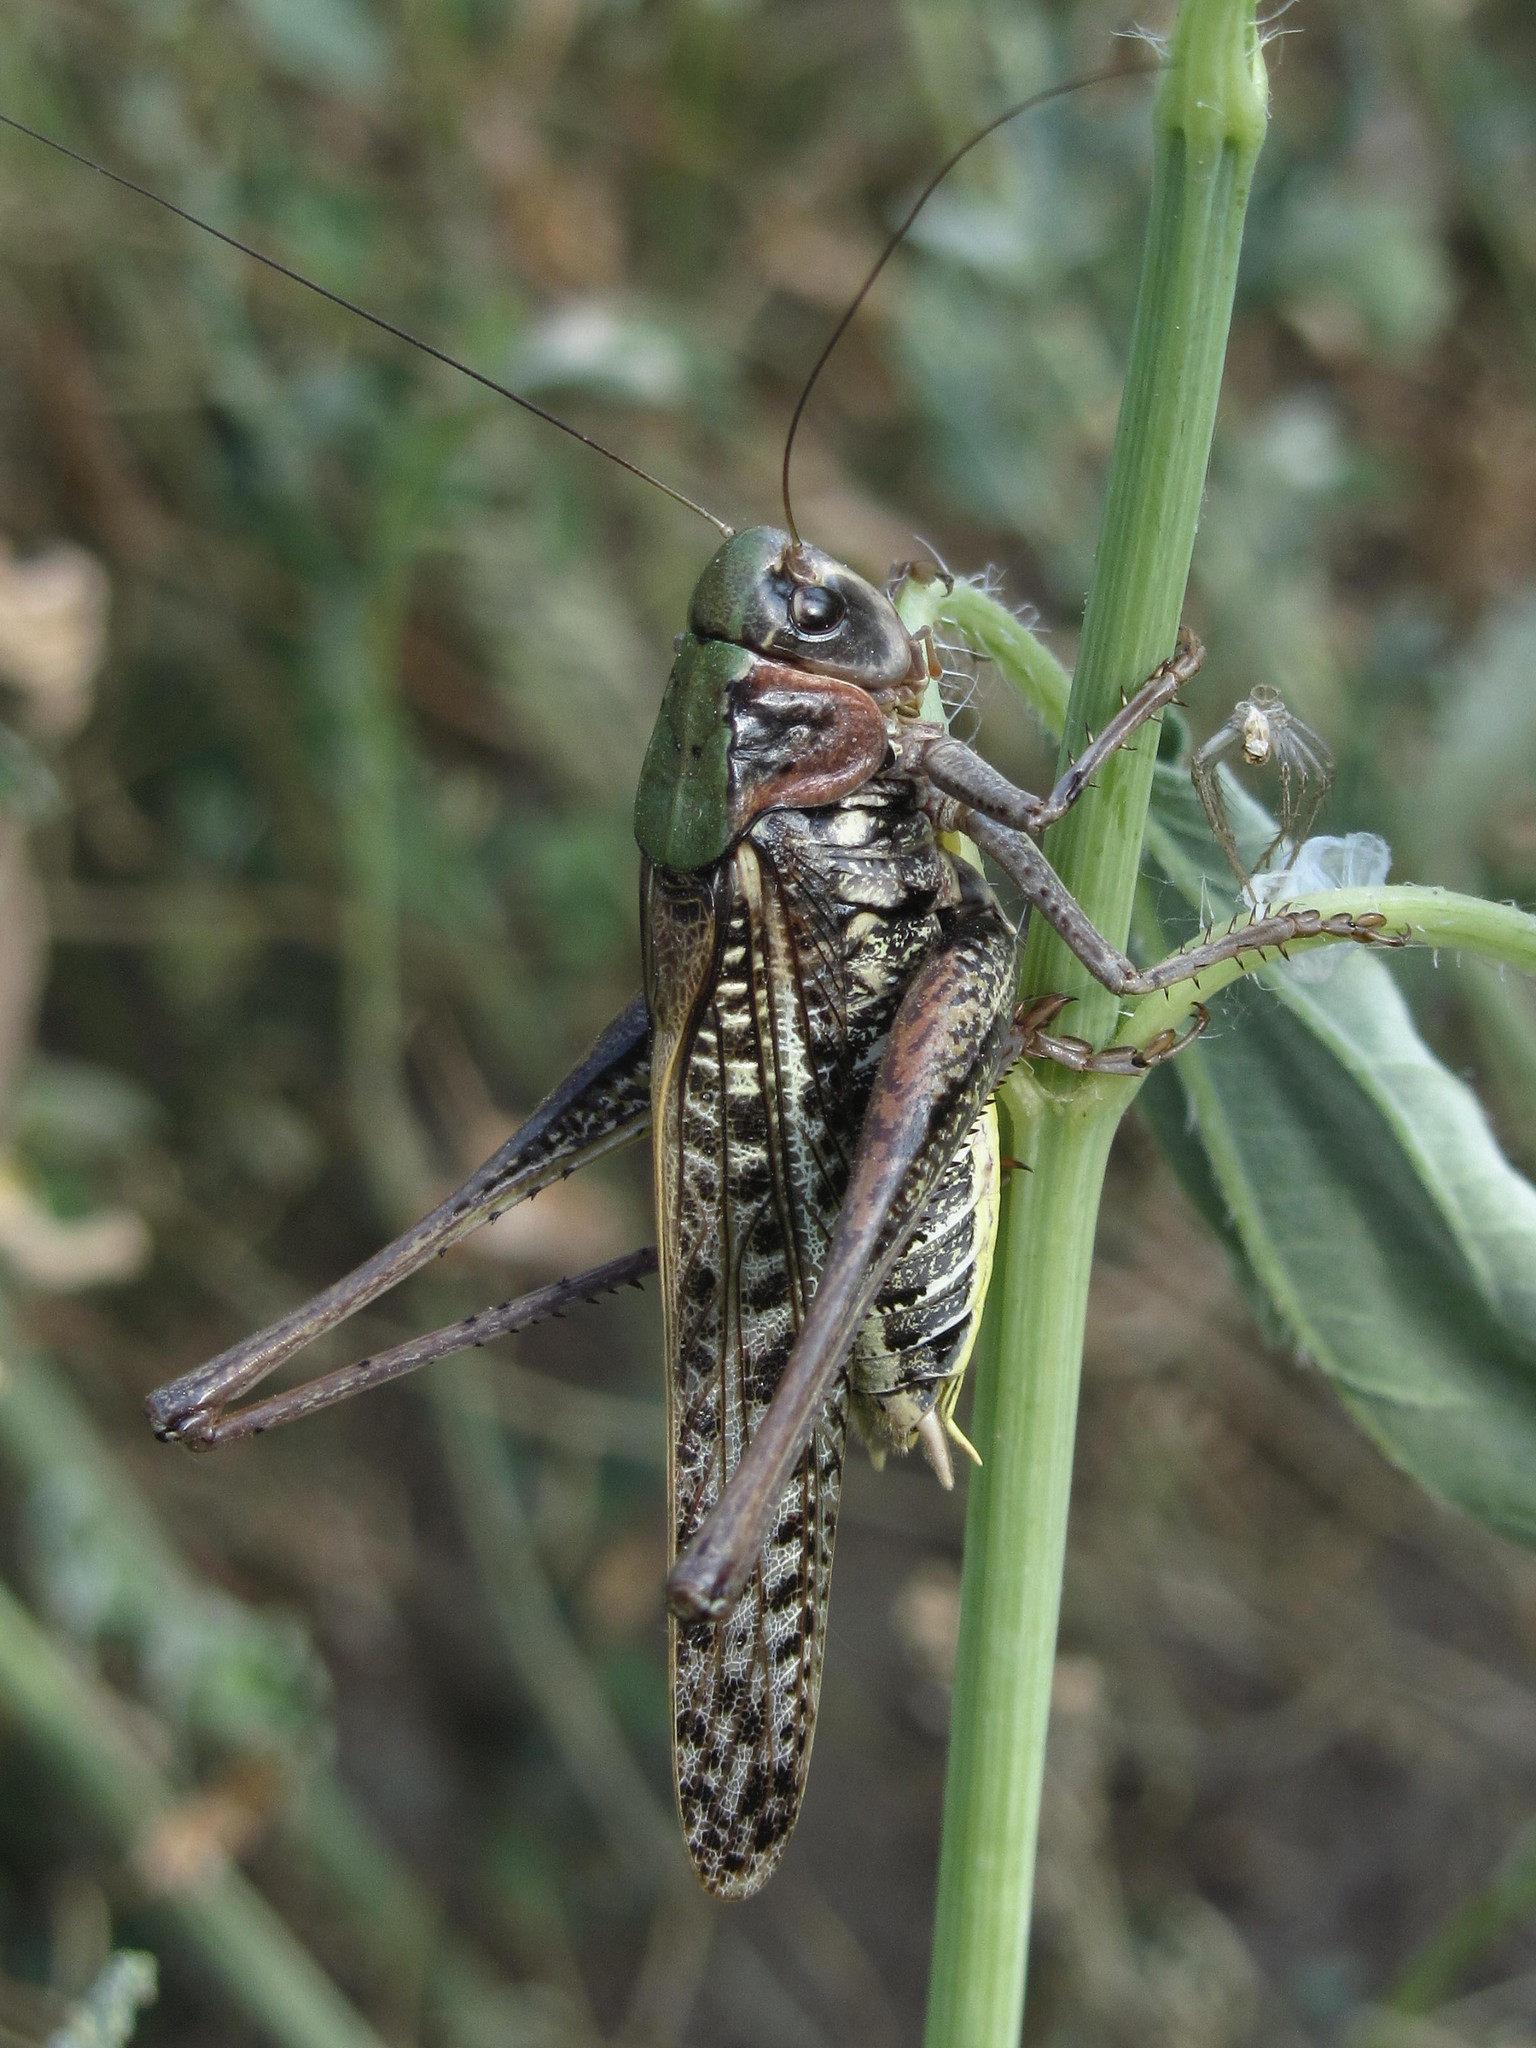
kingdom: Animalia
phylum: Arthropoda
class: Insecta
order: Orthoptera
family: Tettigoniidae
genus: Decticus
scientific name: Decticus verrucivorus
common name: Wart-biter
